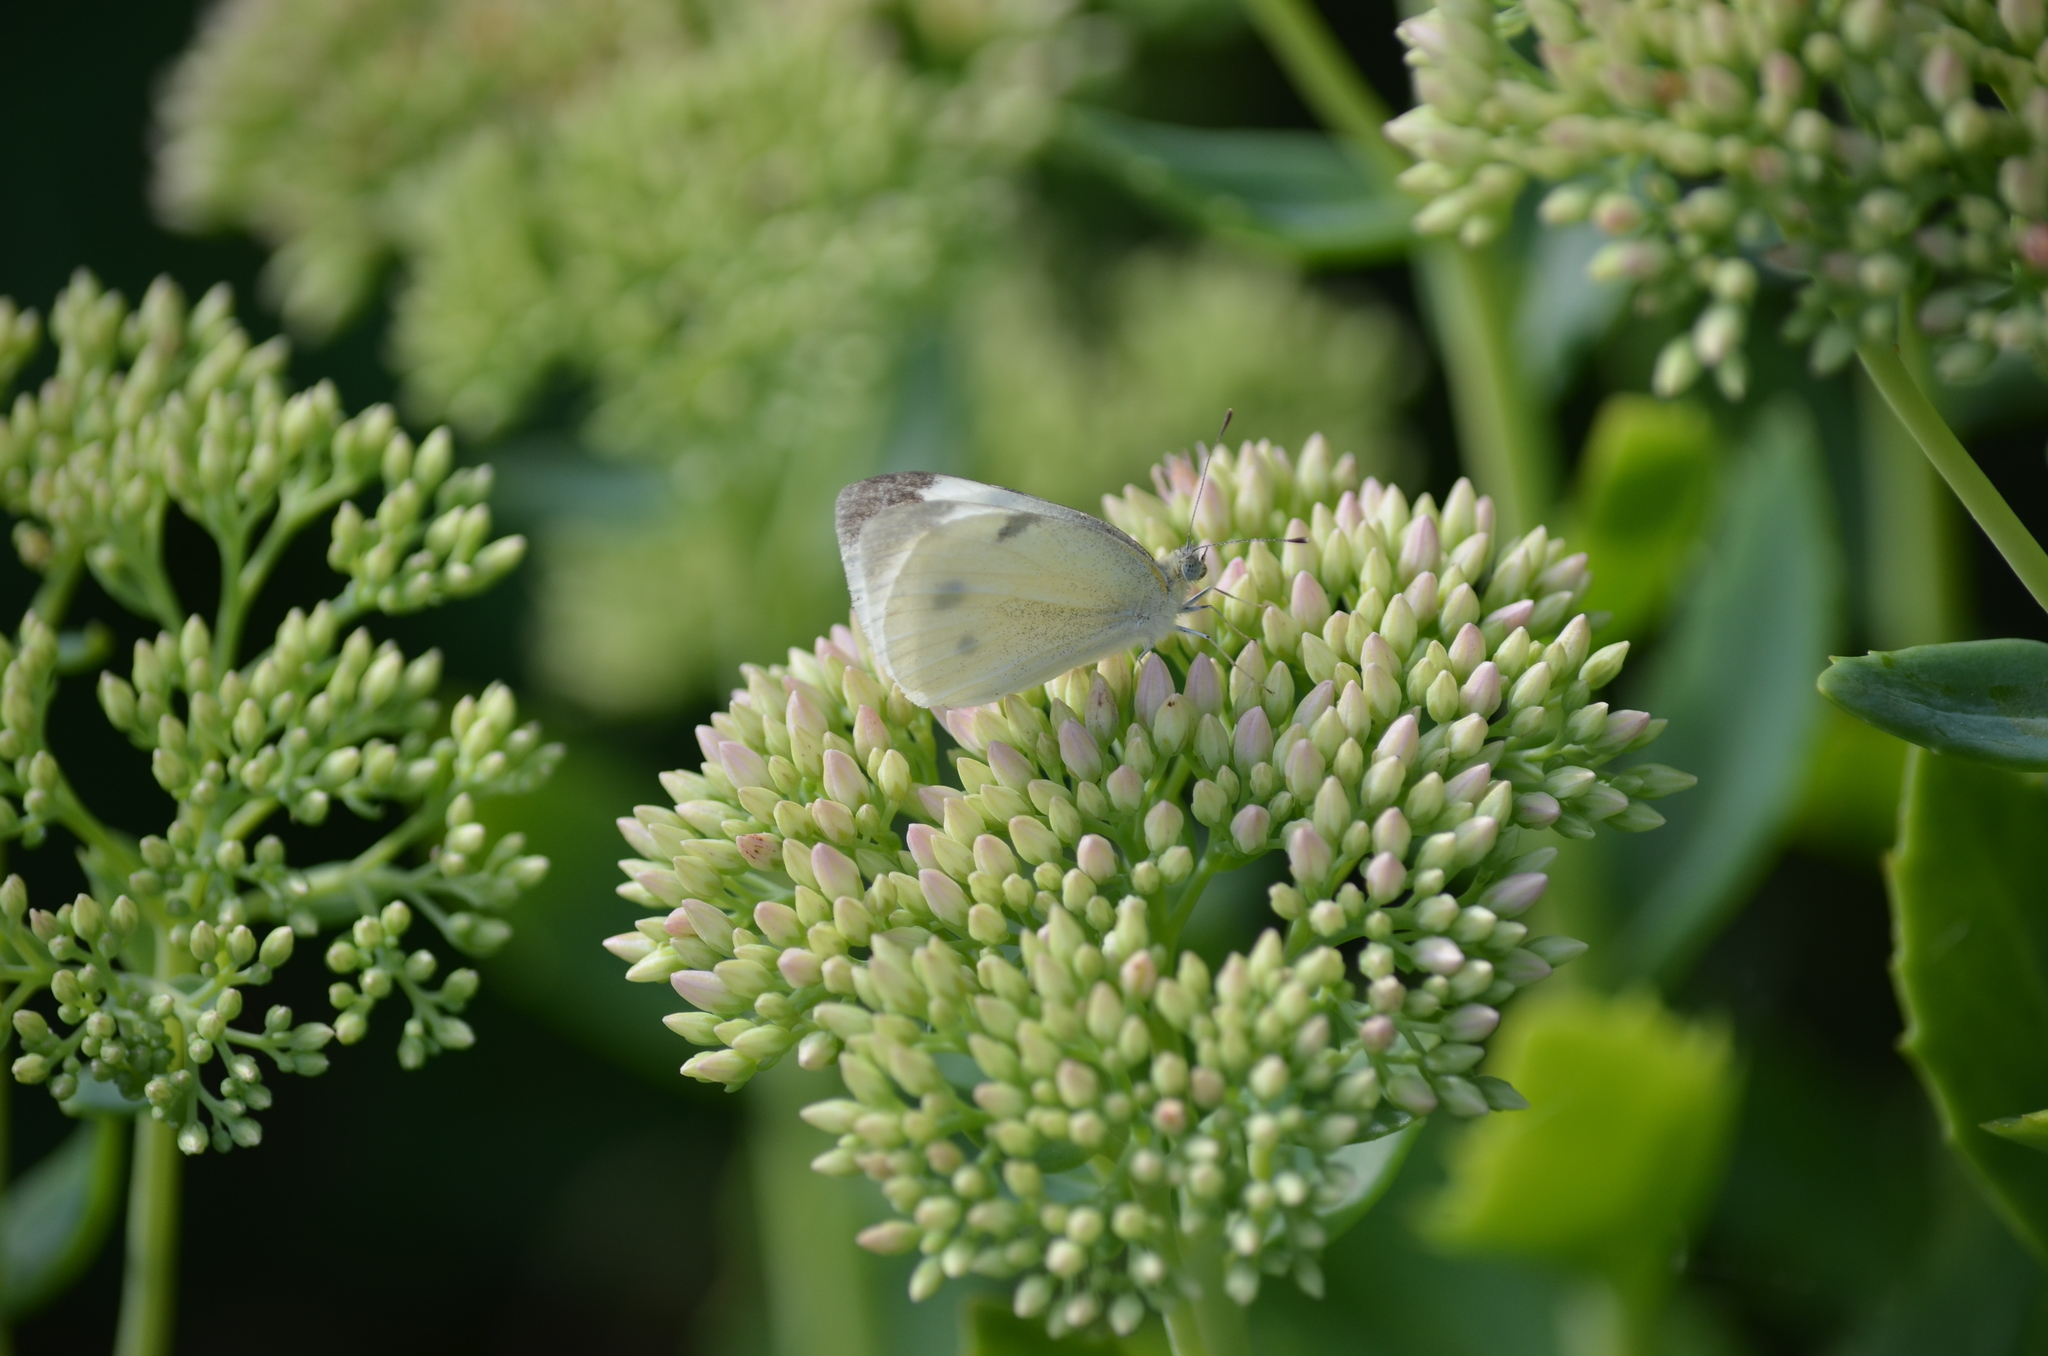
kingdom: Animalia
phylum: Arthropoda
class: Insecta
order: Lepidoptera
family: Pieridae
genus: Pieris
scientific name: Pieris rapae
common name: Small white
